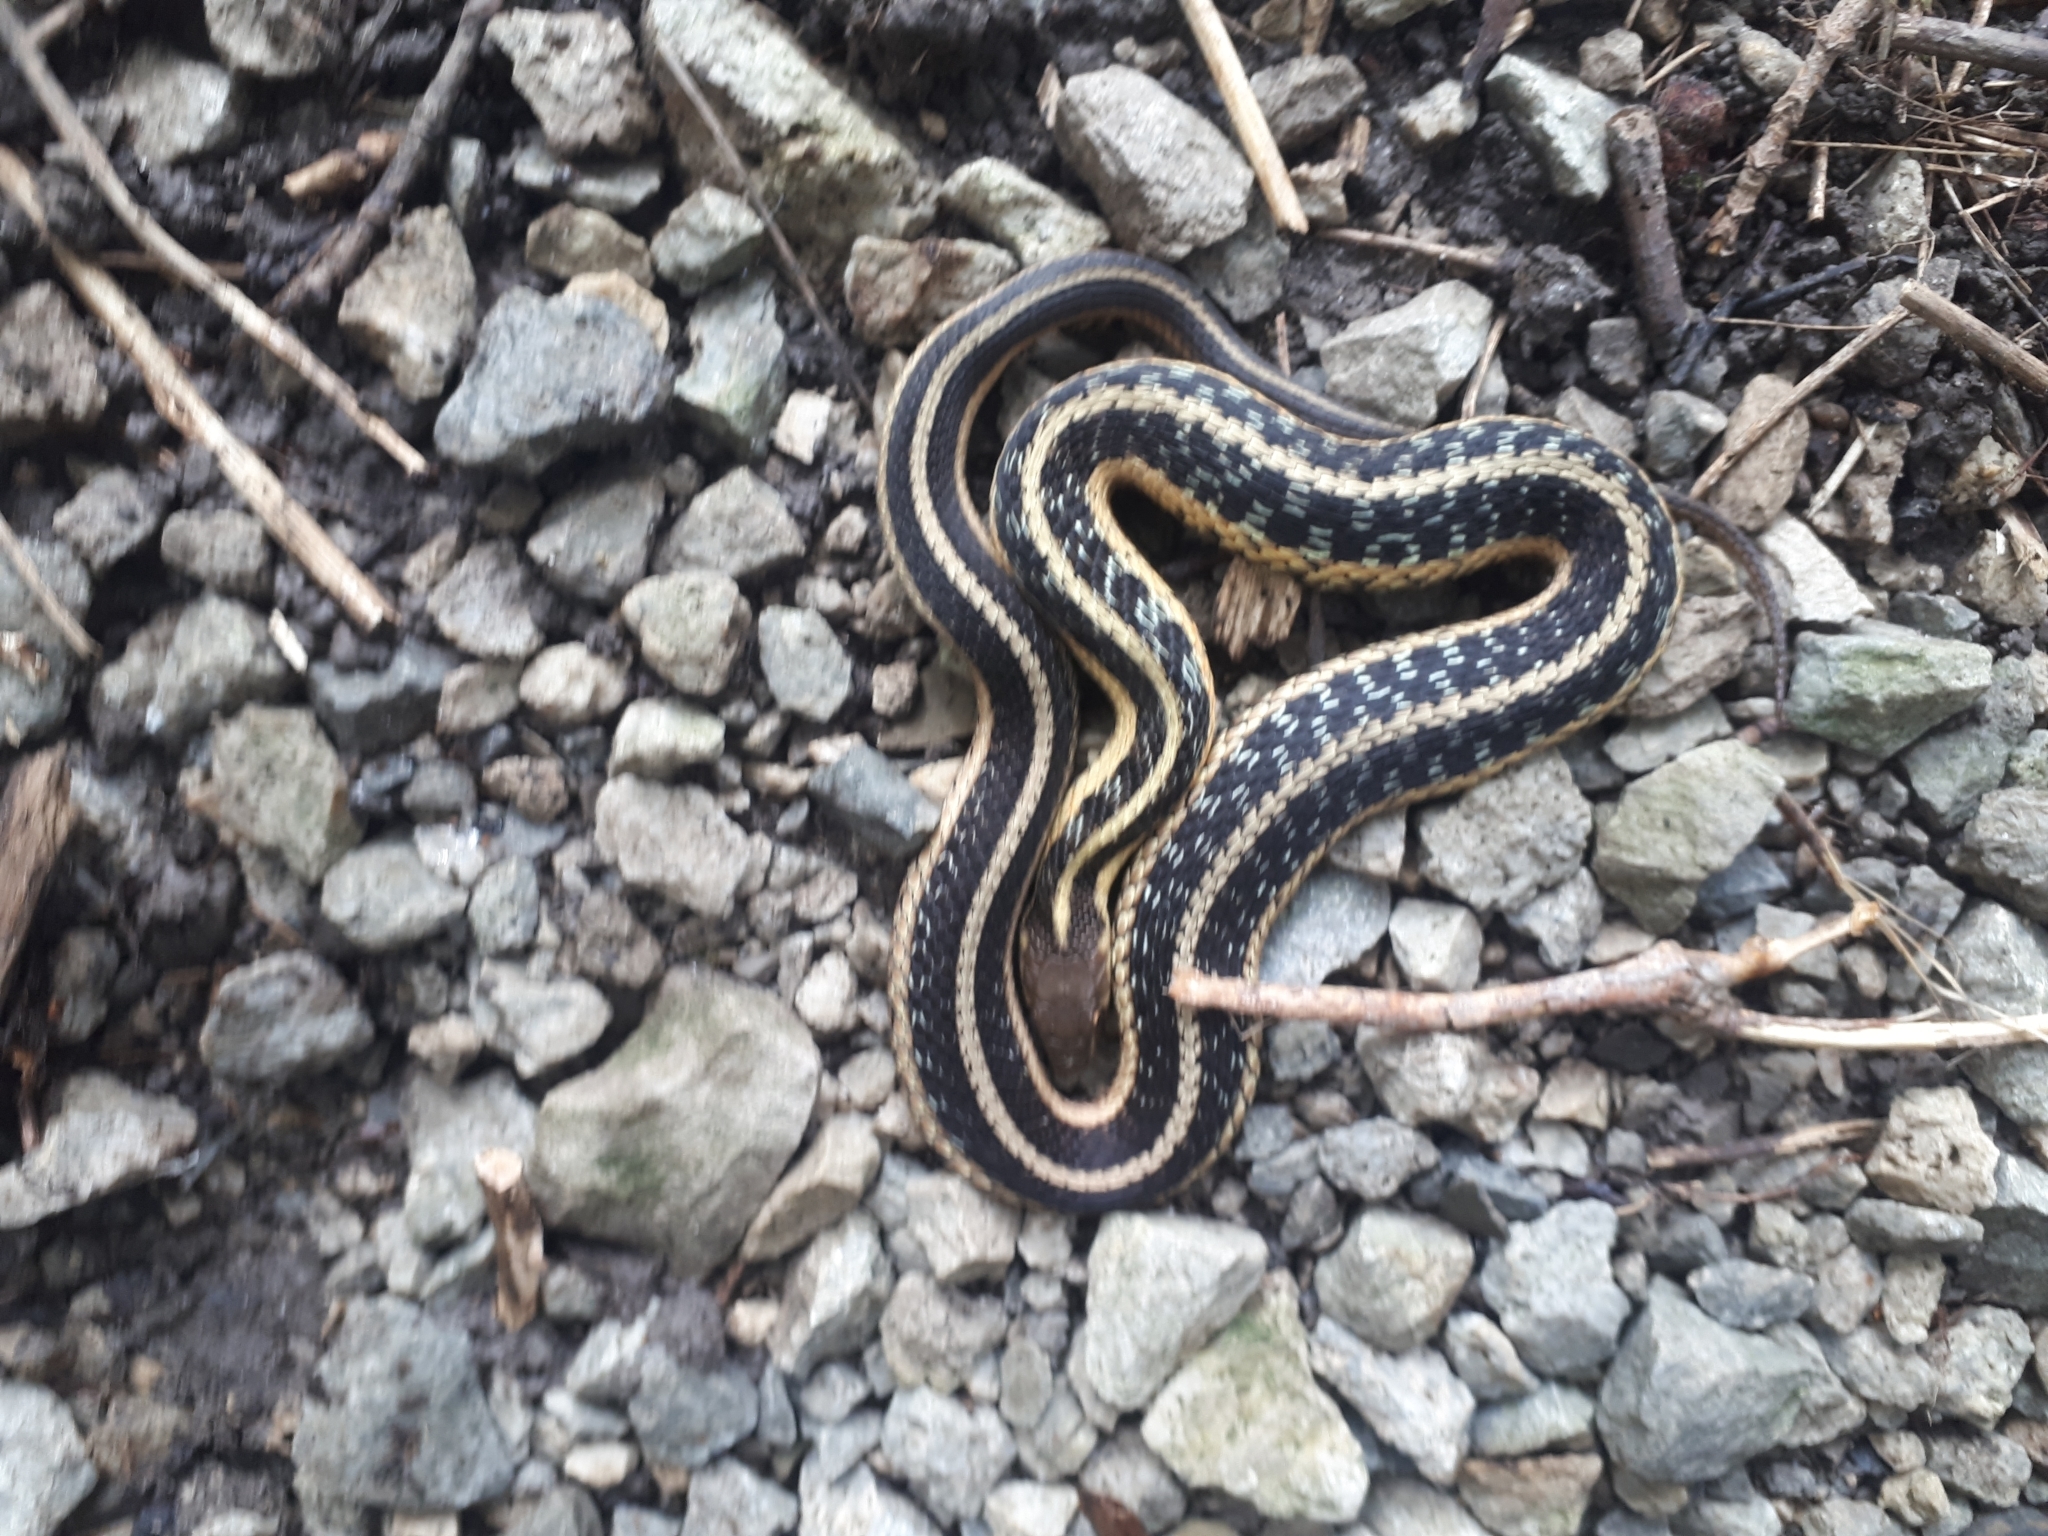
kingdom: Animalia
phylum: Chordata
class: Squamata
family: Colubridae
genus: Thamnophis
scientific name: Thamnophis sirtalis
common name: Common garter snake
